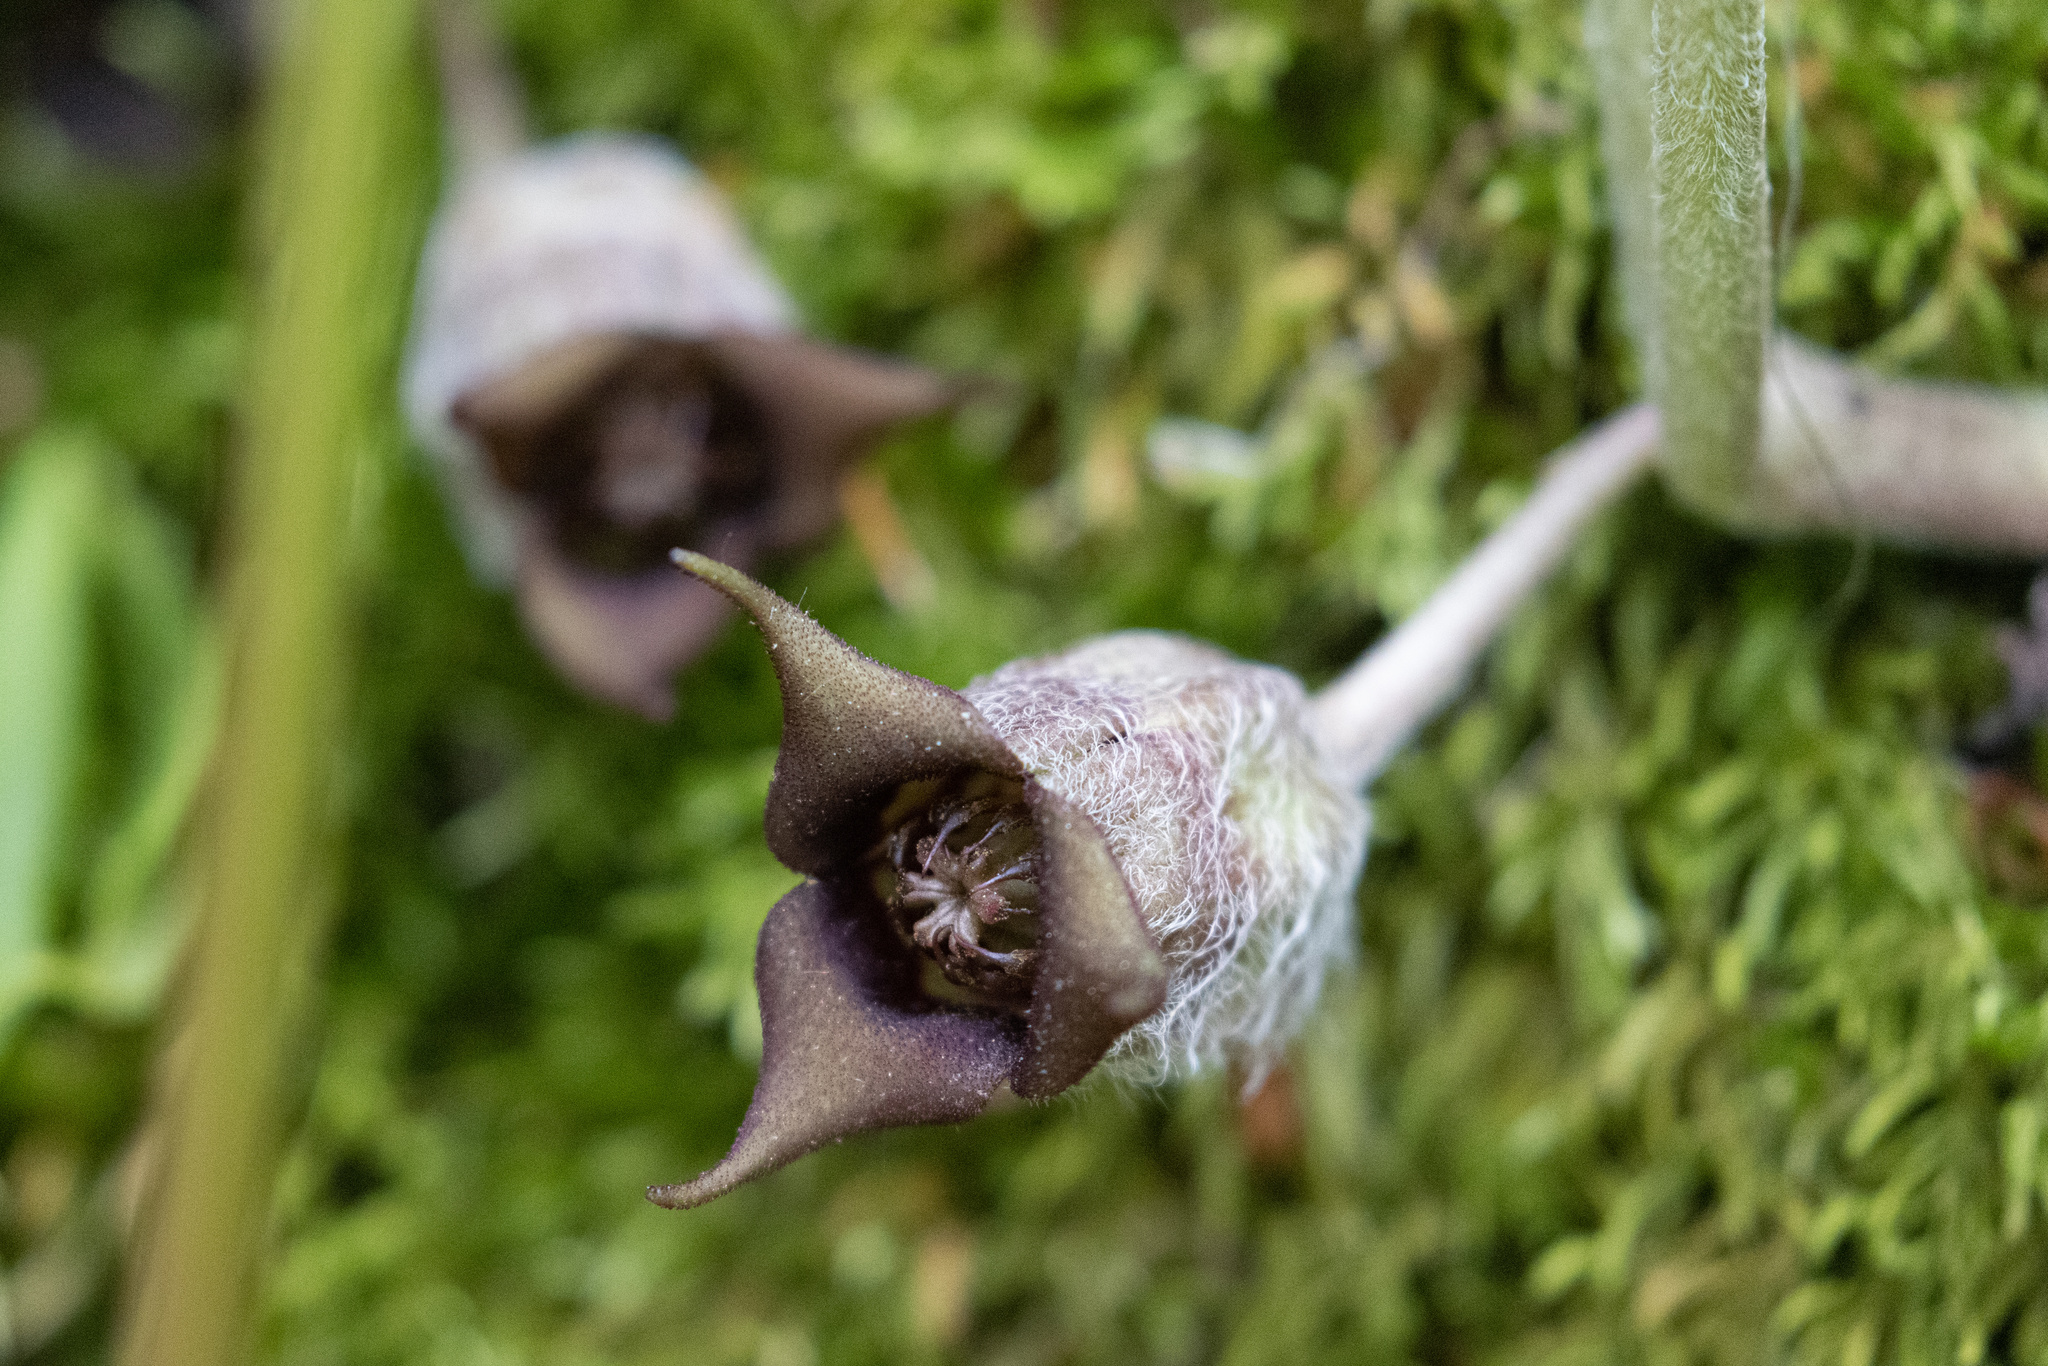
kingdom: Plantae
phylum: Tracheophyta
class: Magnoliopsida
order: Piperales
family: Aristolochiaceae
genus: Asarum
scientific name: Asarum canadense
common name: Wild ginger
